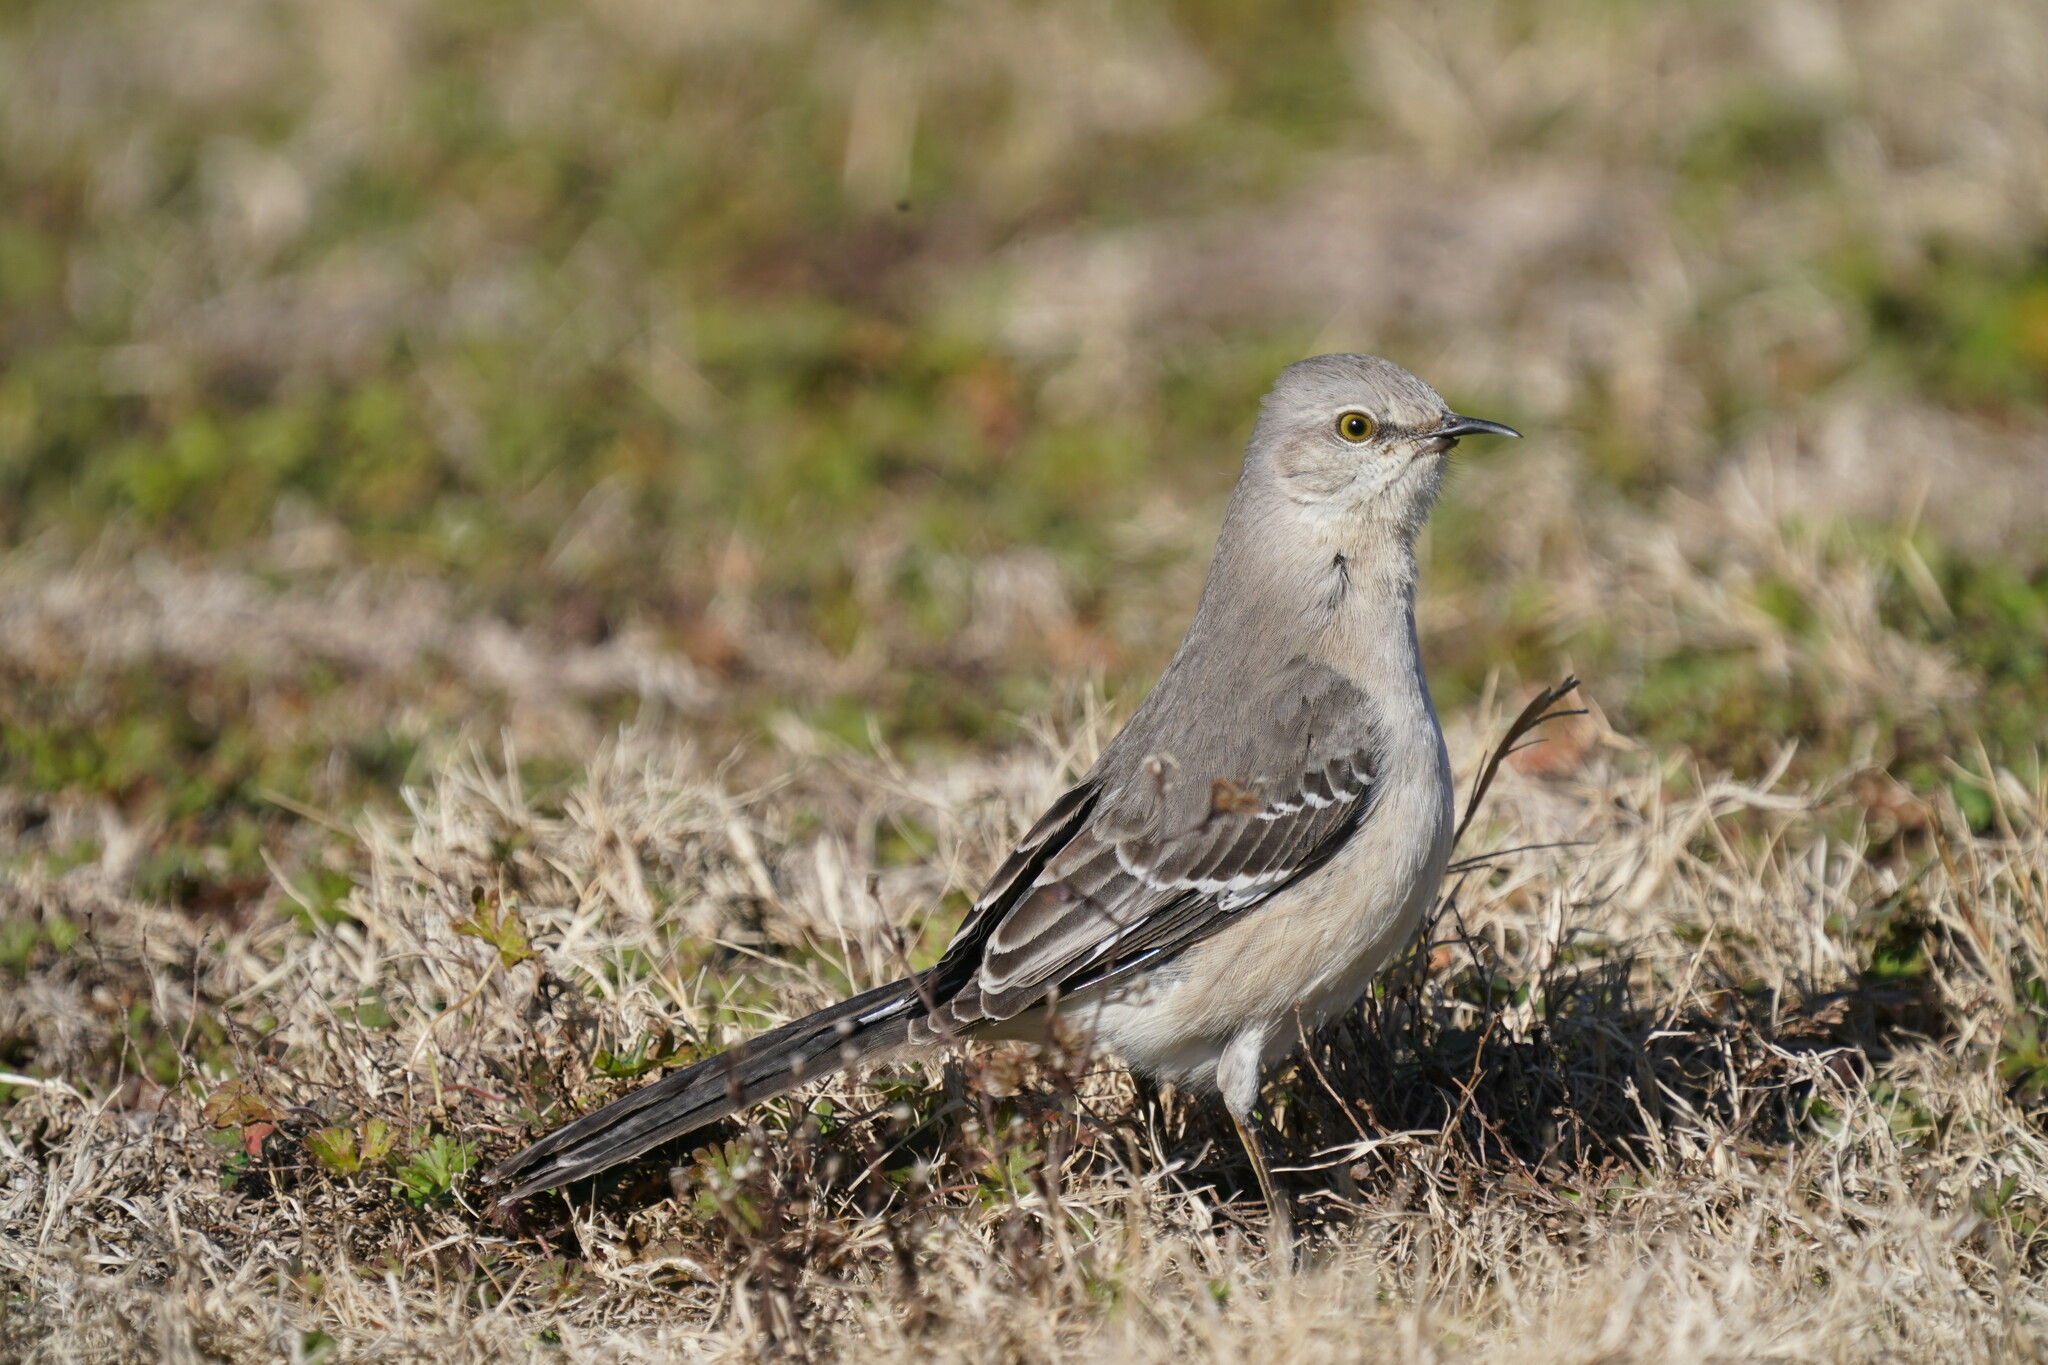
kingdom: Animalia
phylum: Chordata
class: Aves
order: Passeriformes
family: Mimidae
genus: Mimus
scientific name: Mimus polyglottos
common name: Northern mockingbird
